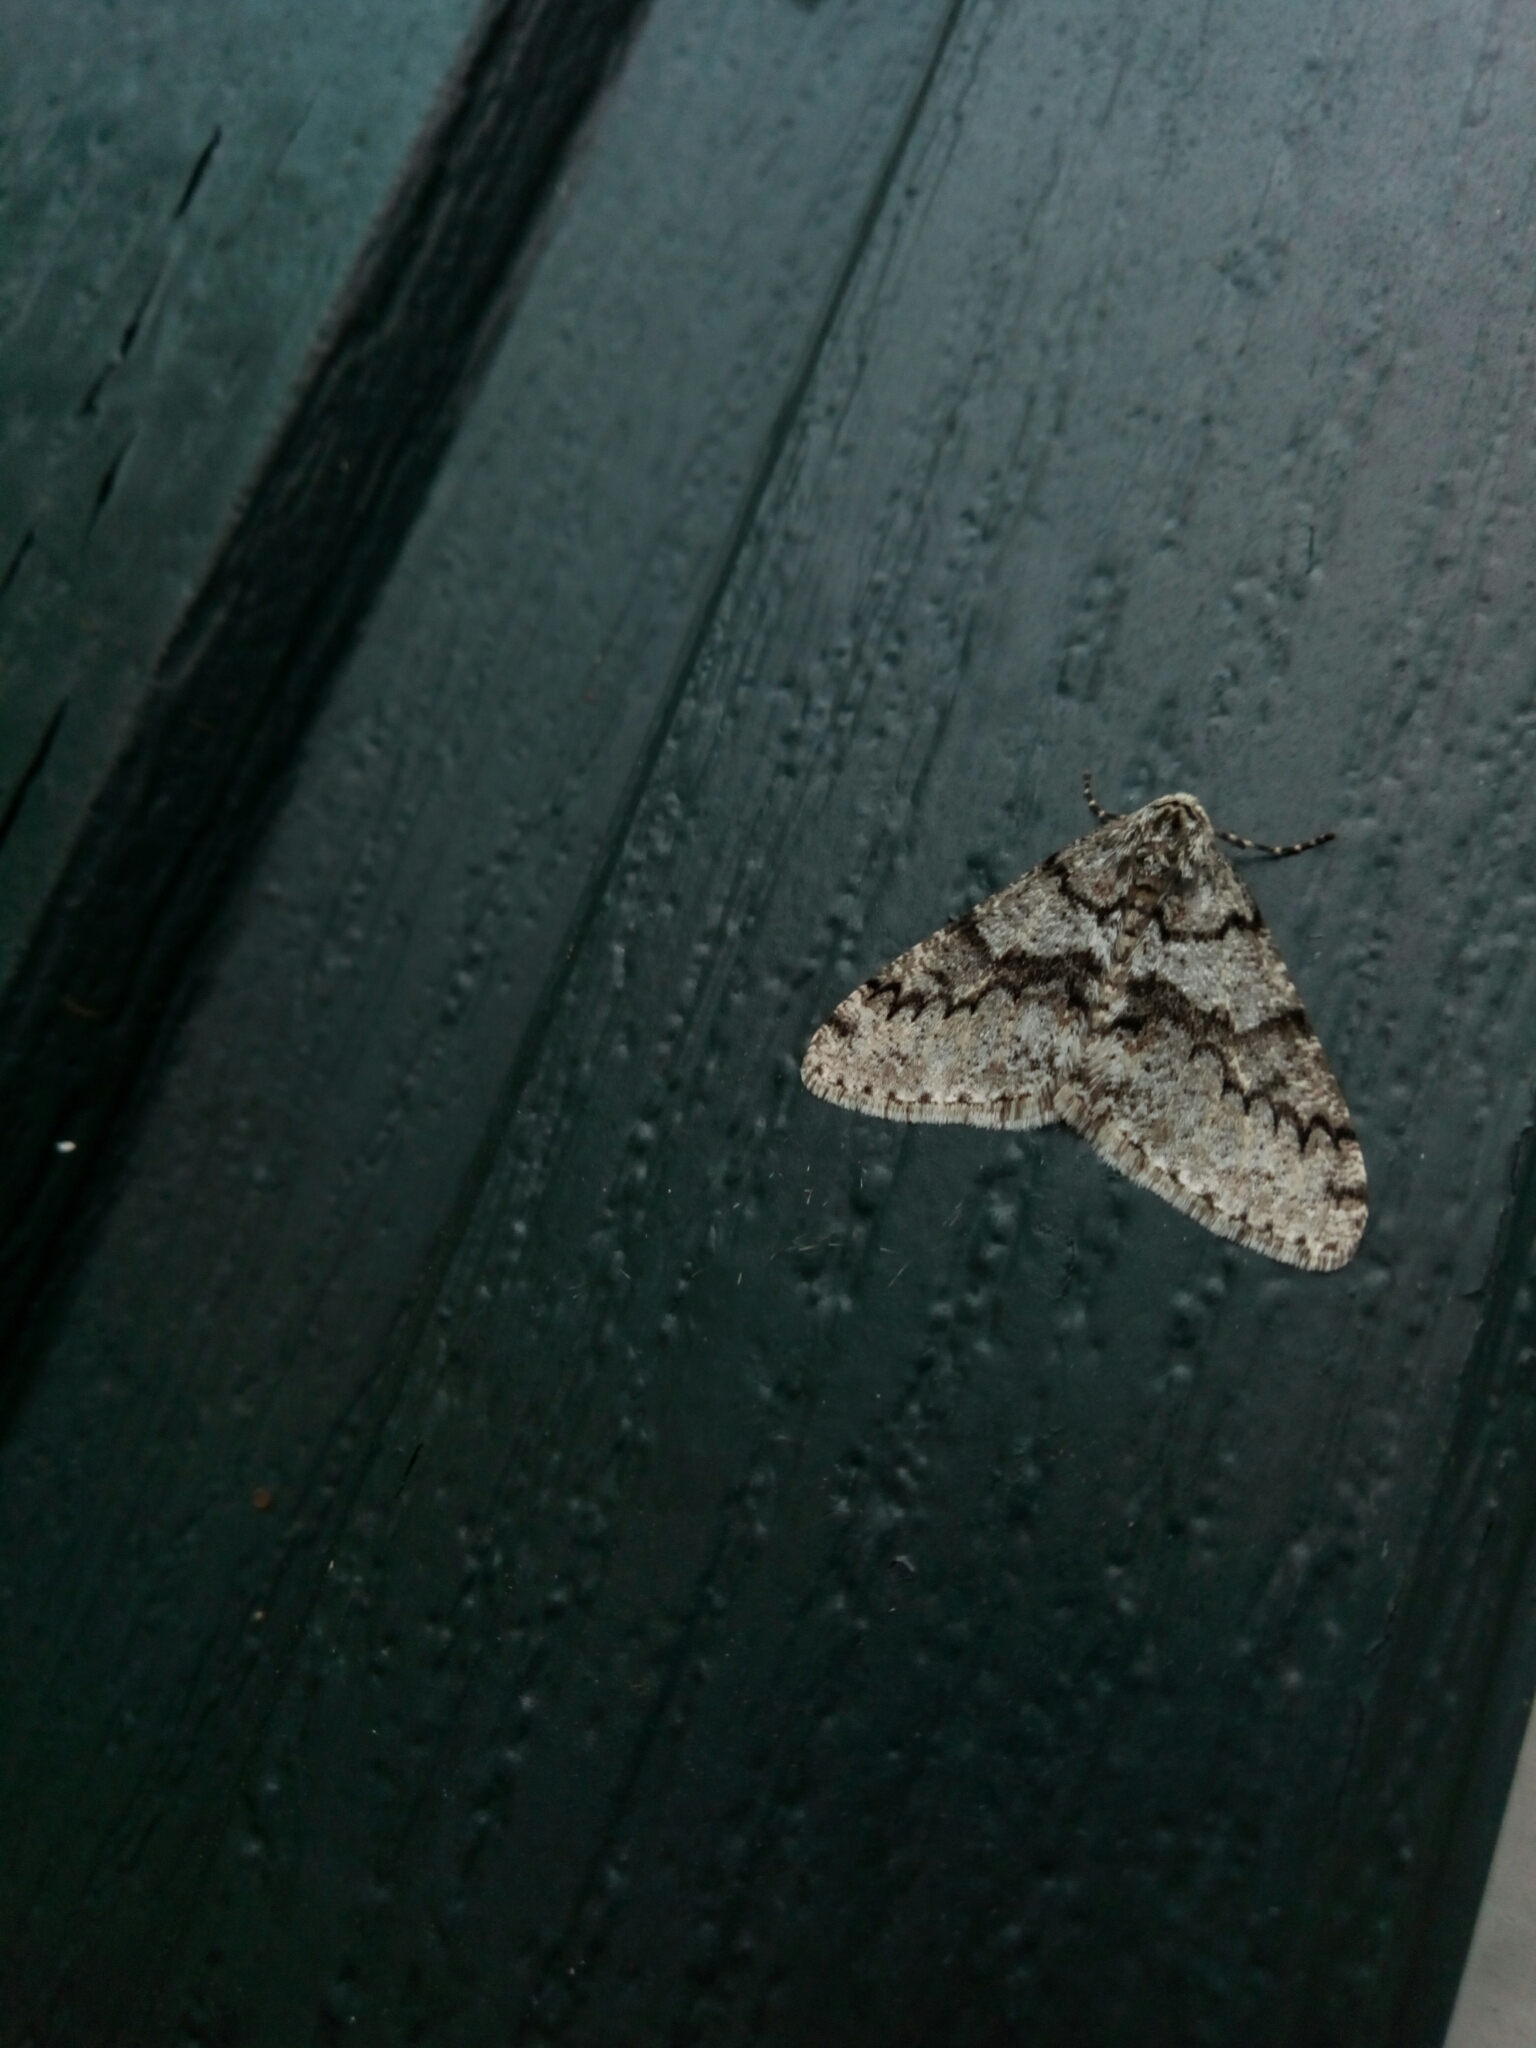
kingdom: Animalia
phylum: Arthropoda
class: Insecta
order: Lepidoptera
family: Geometridae
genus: Phigalia
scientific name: Phigalia denticulata
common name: Toothed phigalia
